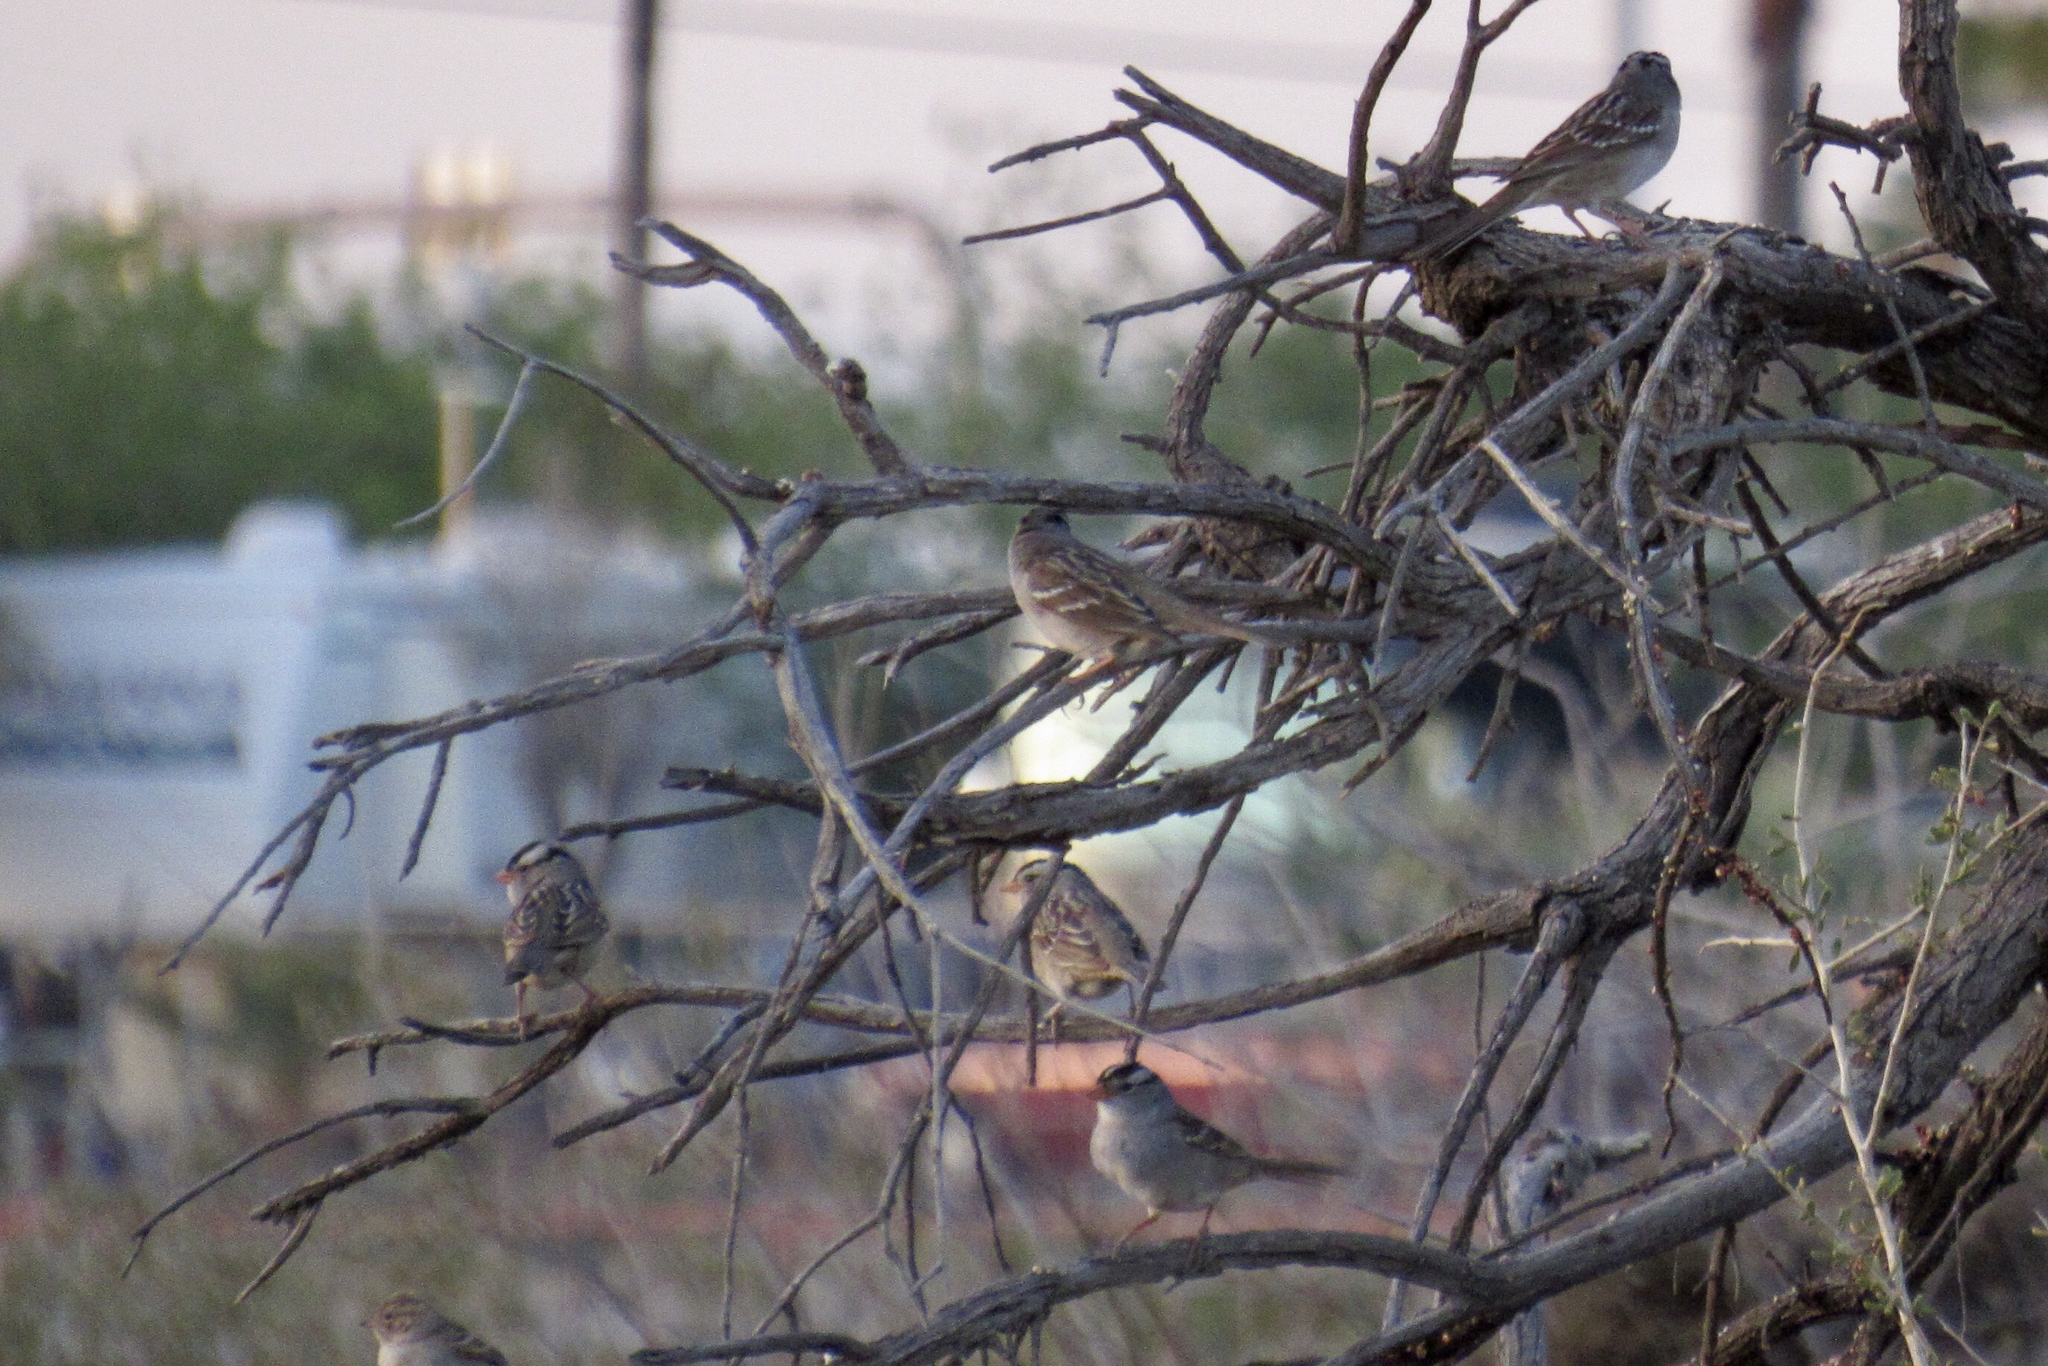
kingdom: Animalia
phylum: Chordata
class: Aves
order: Passeriformes
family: Passerellidae
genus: Zonotrichia
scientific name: Zonotrichia leucophrys
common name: White-crowned sparrow
